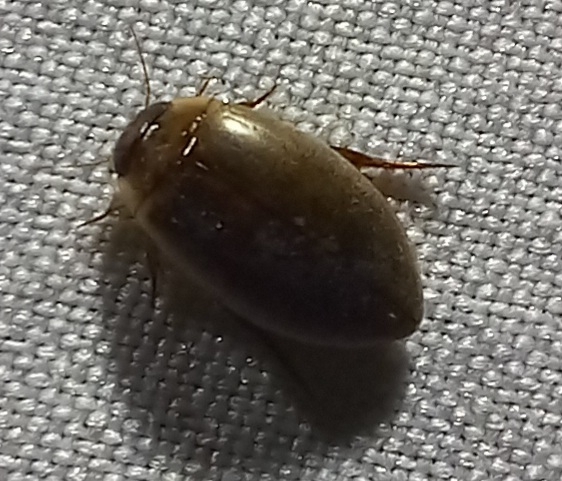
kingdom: Animalia
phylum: Arthropoda
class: Insecta
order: Coleoptera
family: Dytiscidae
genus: Hydaticus
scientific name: Hydaticus leander
